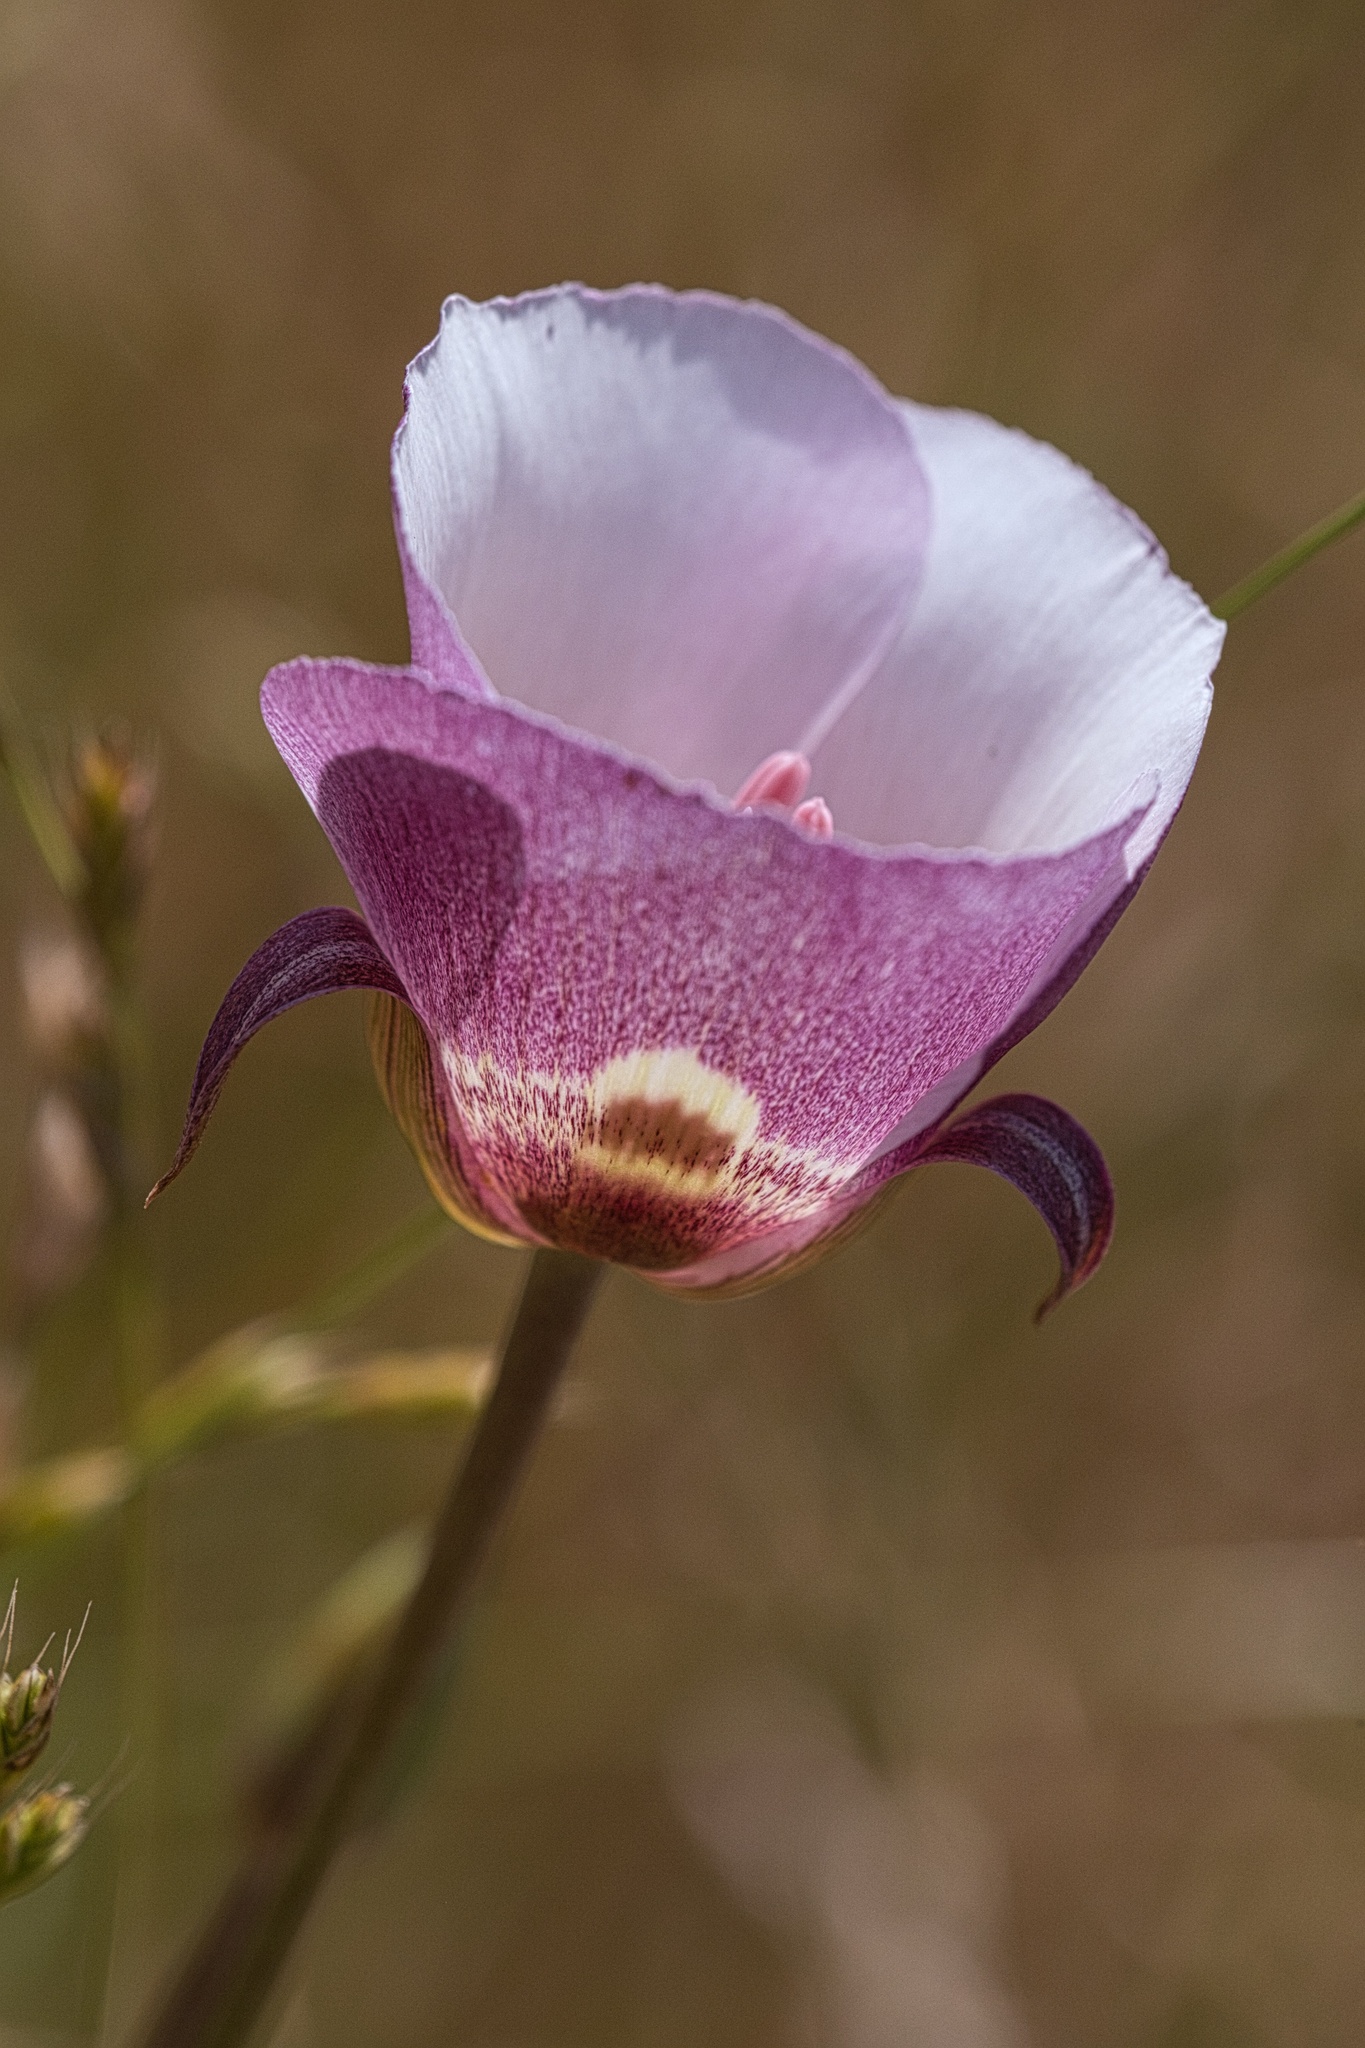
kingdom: Plantae
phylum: Tracheophyta
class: Liliopsida
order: Liliales
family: Liliaceae
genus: Calochortus
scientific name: Calochortus argillosus
